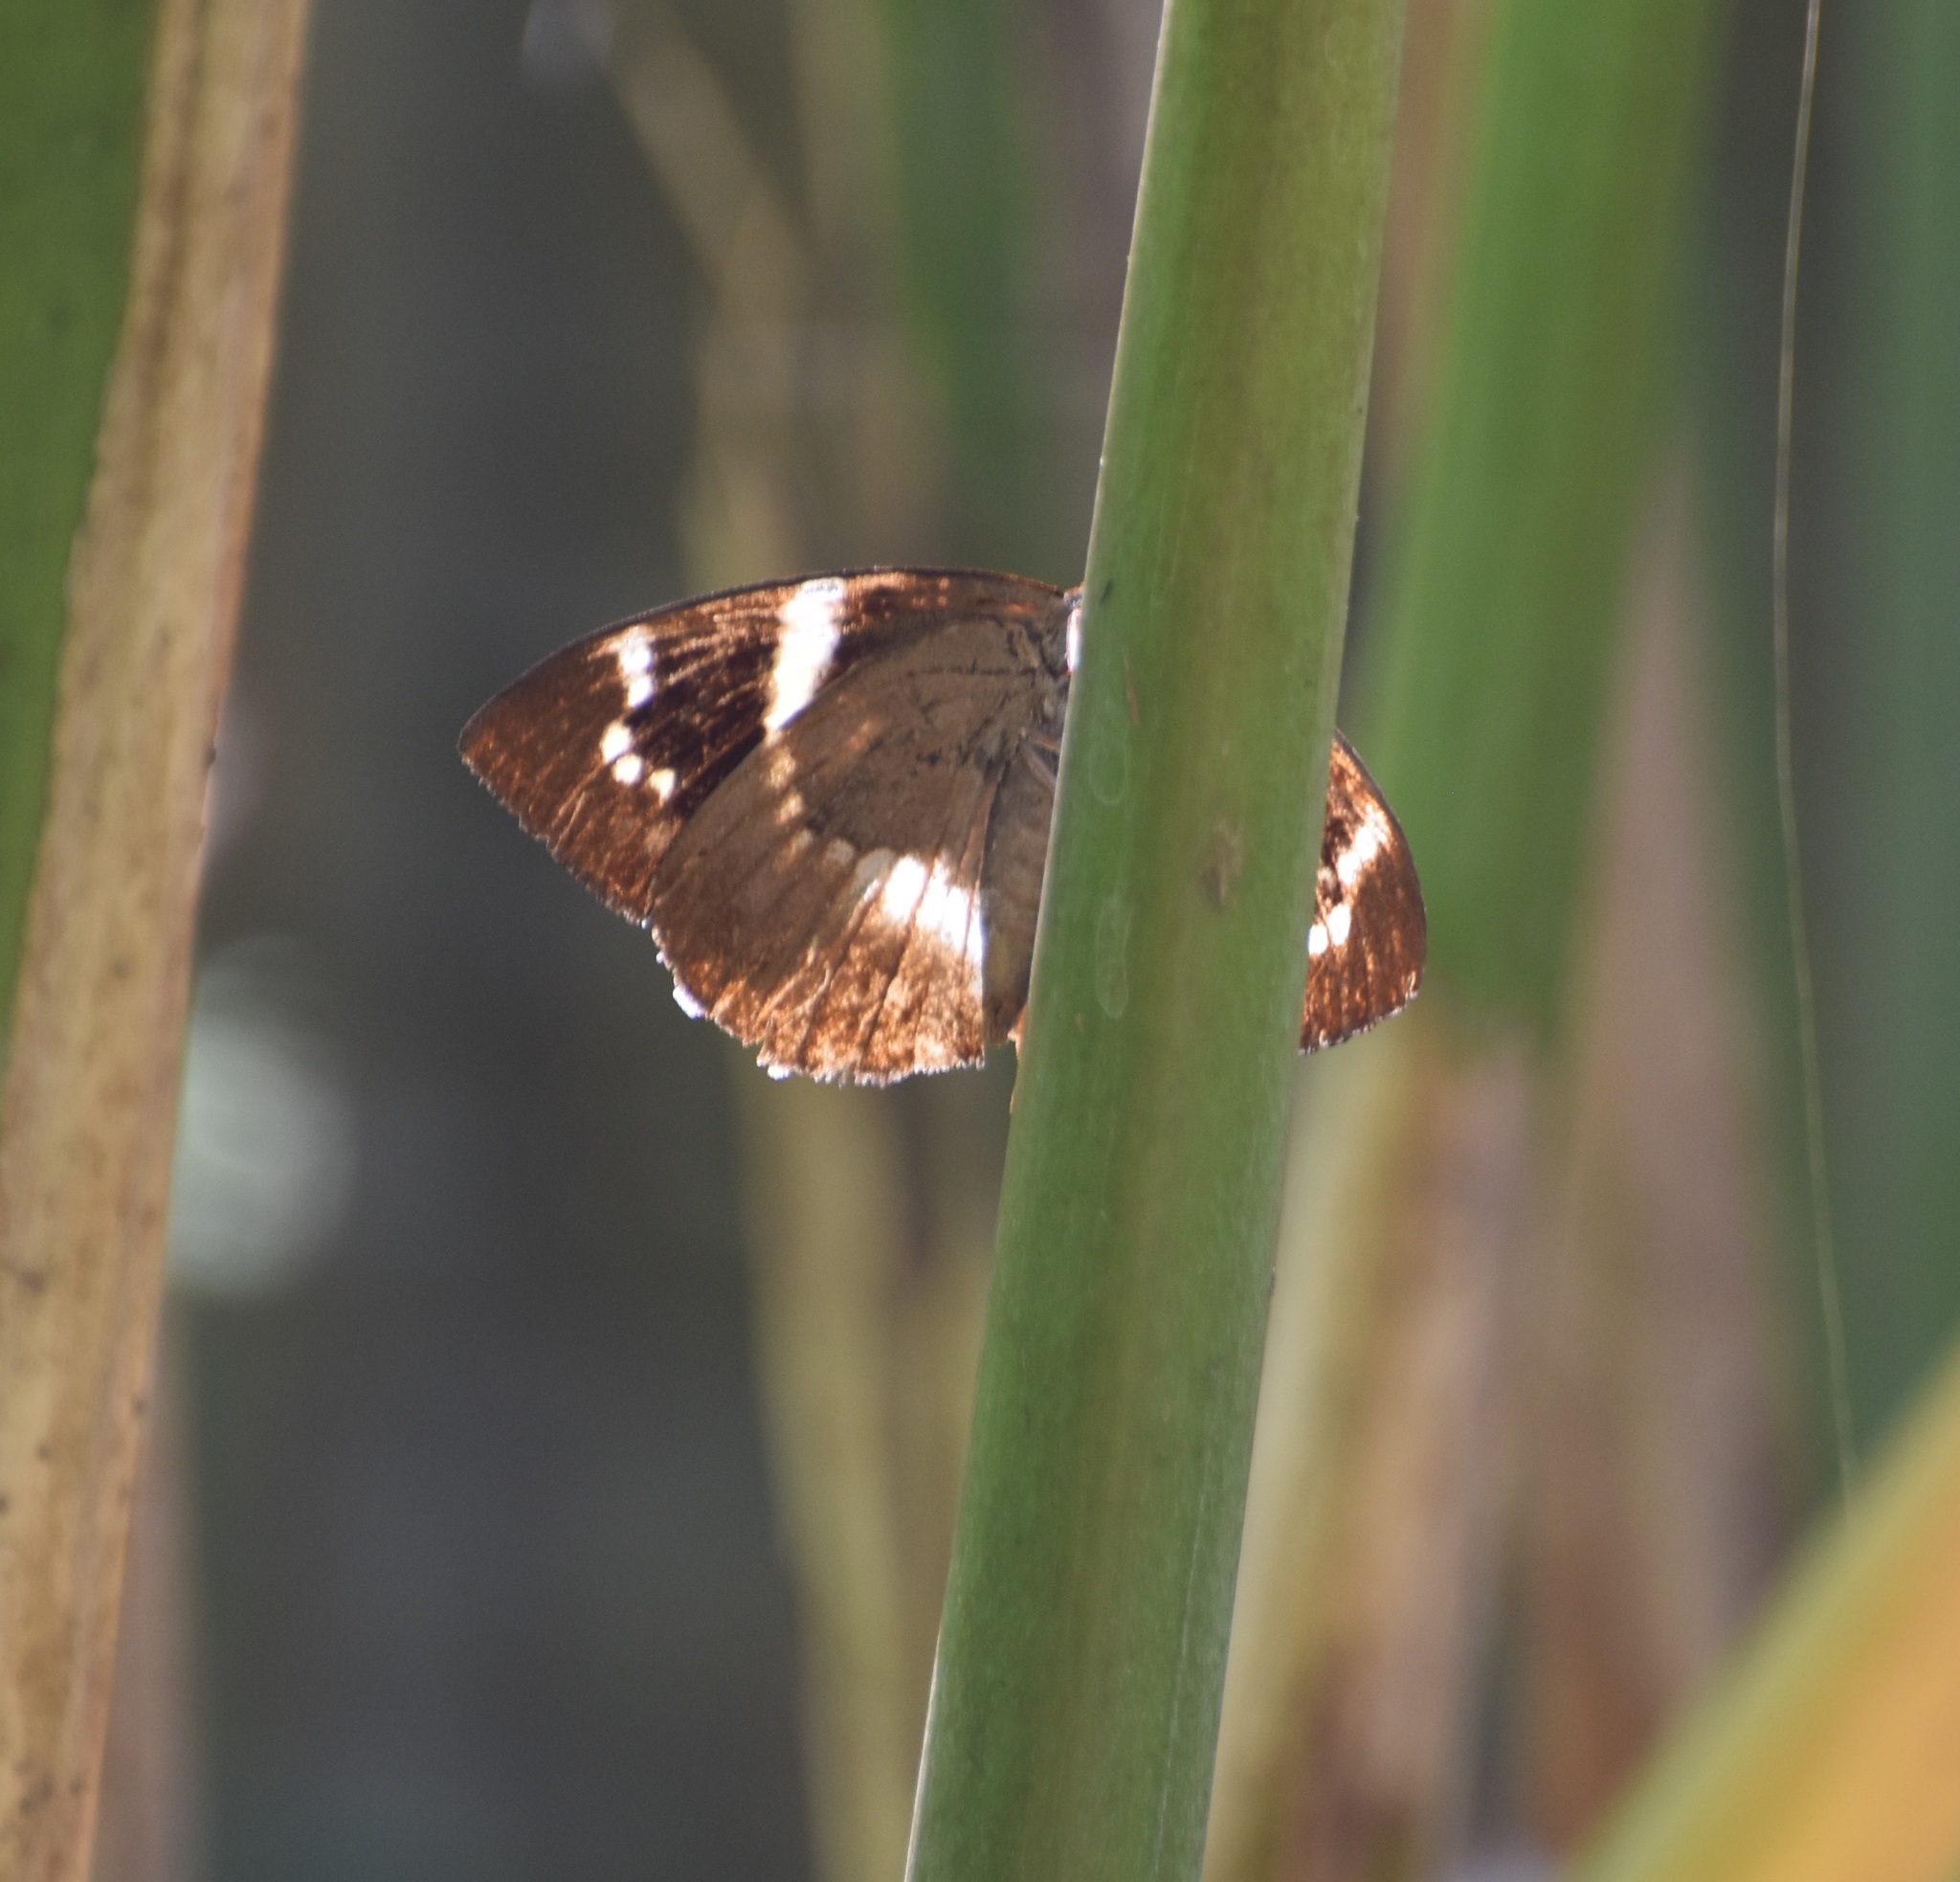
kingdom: Animalia
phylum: Arthropoda
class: Insecta
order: Lepidoptera
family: Castniidae
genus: Castniomera
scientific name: Castniomera atymnius
